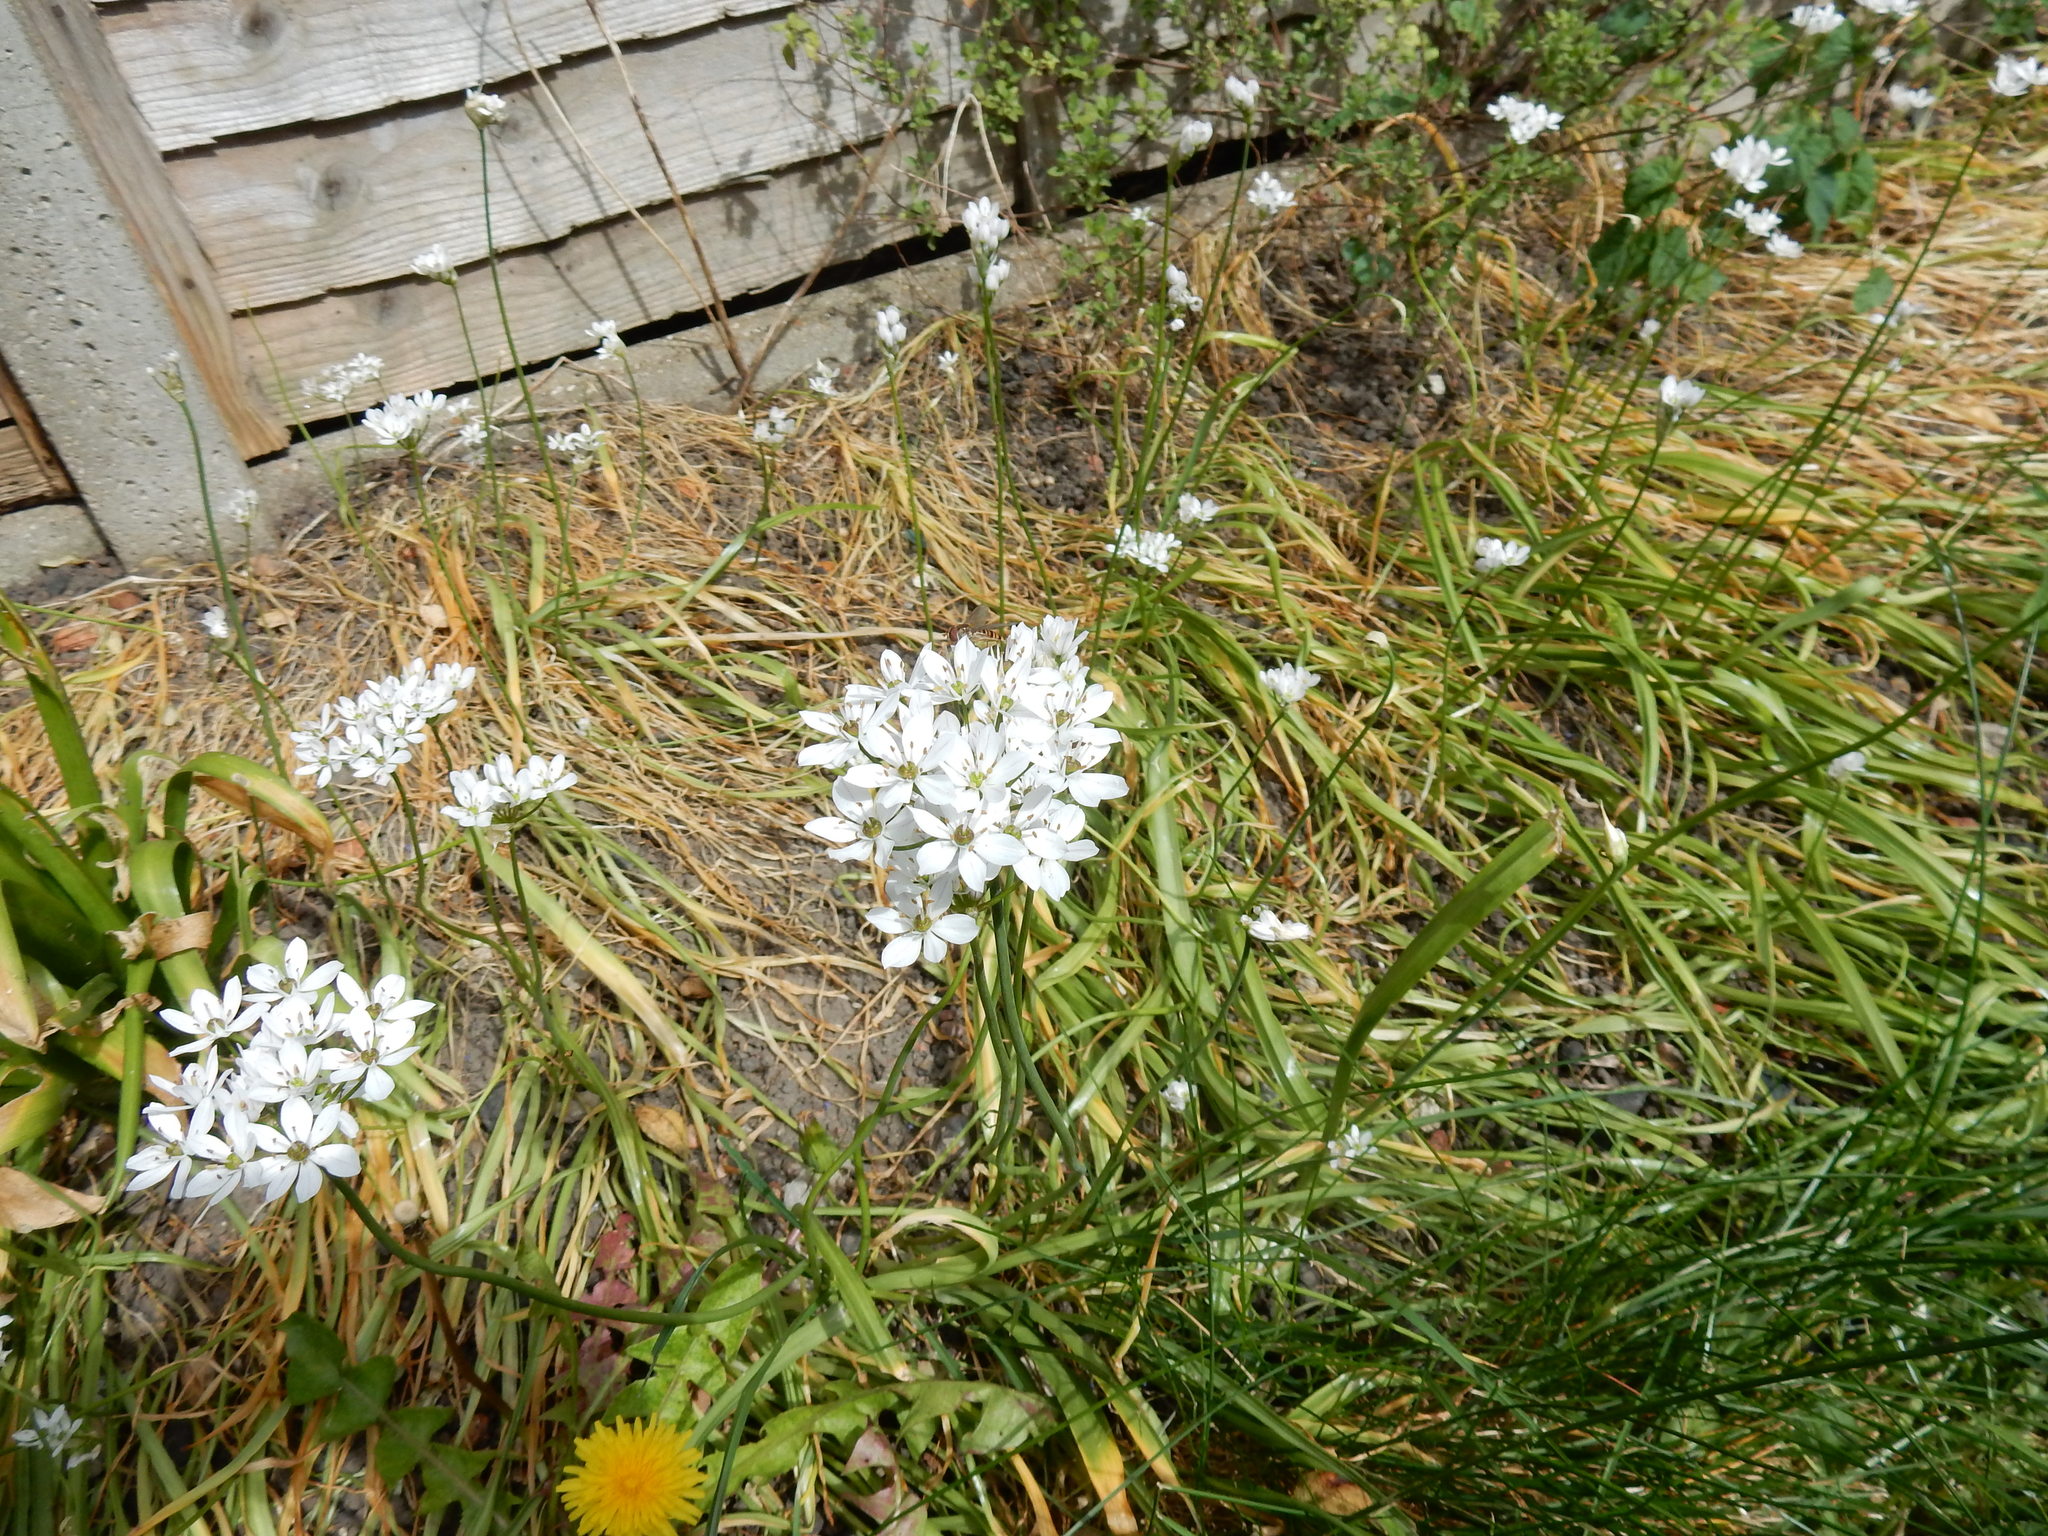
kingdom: Plantae
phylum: Tracheophyta
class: Liliopsida
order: Asparagales
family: Amaryllidaceae
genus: Allium
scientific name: Allium subhirsutum
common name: Hairy garlic
